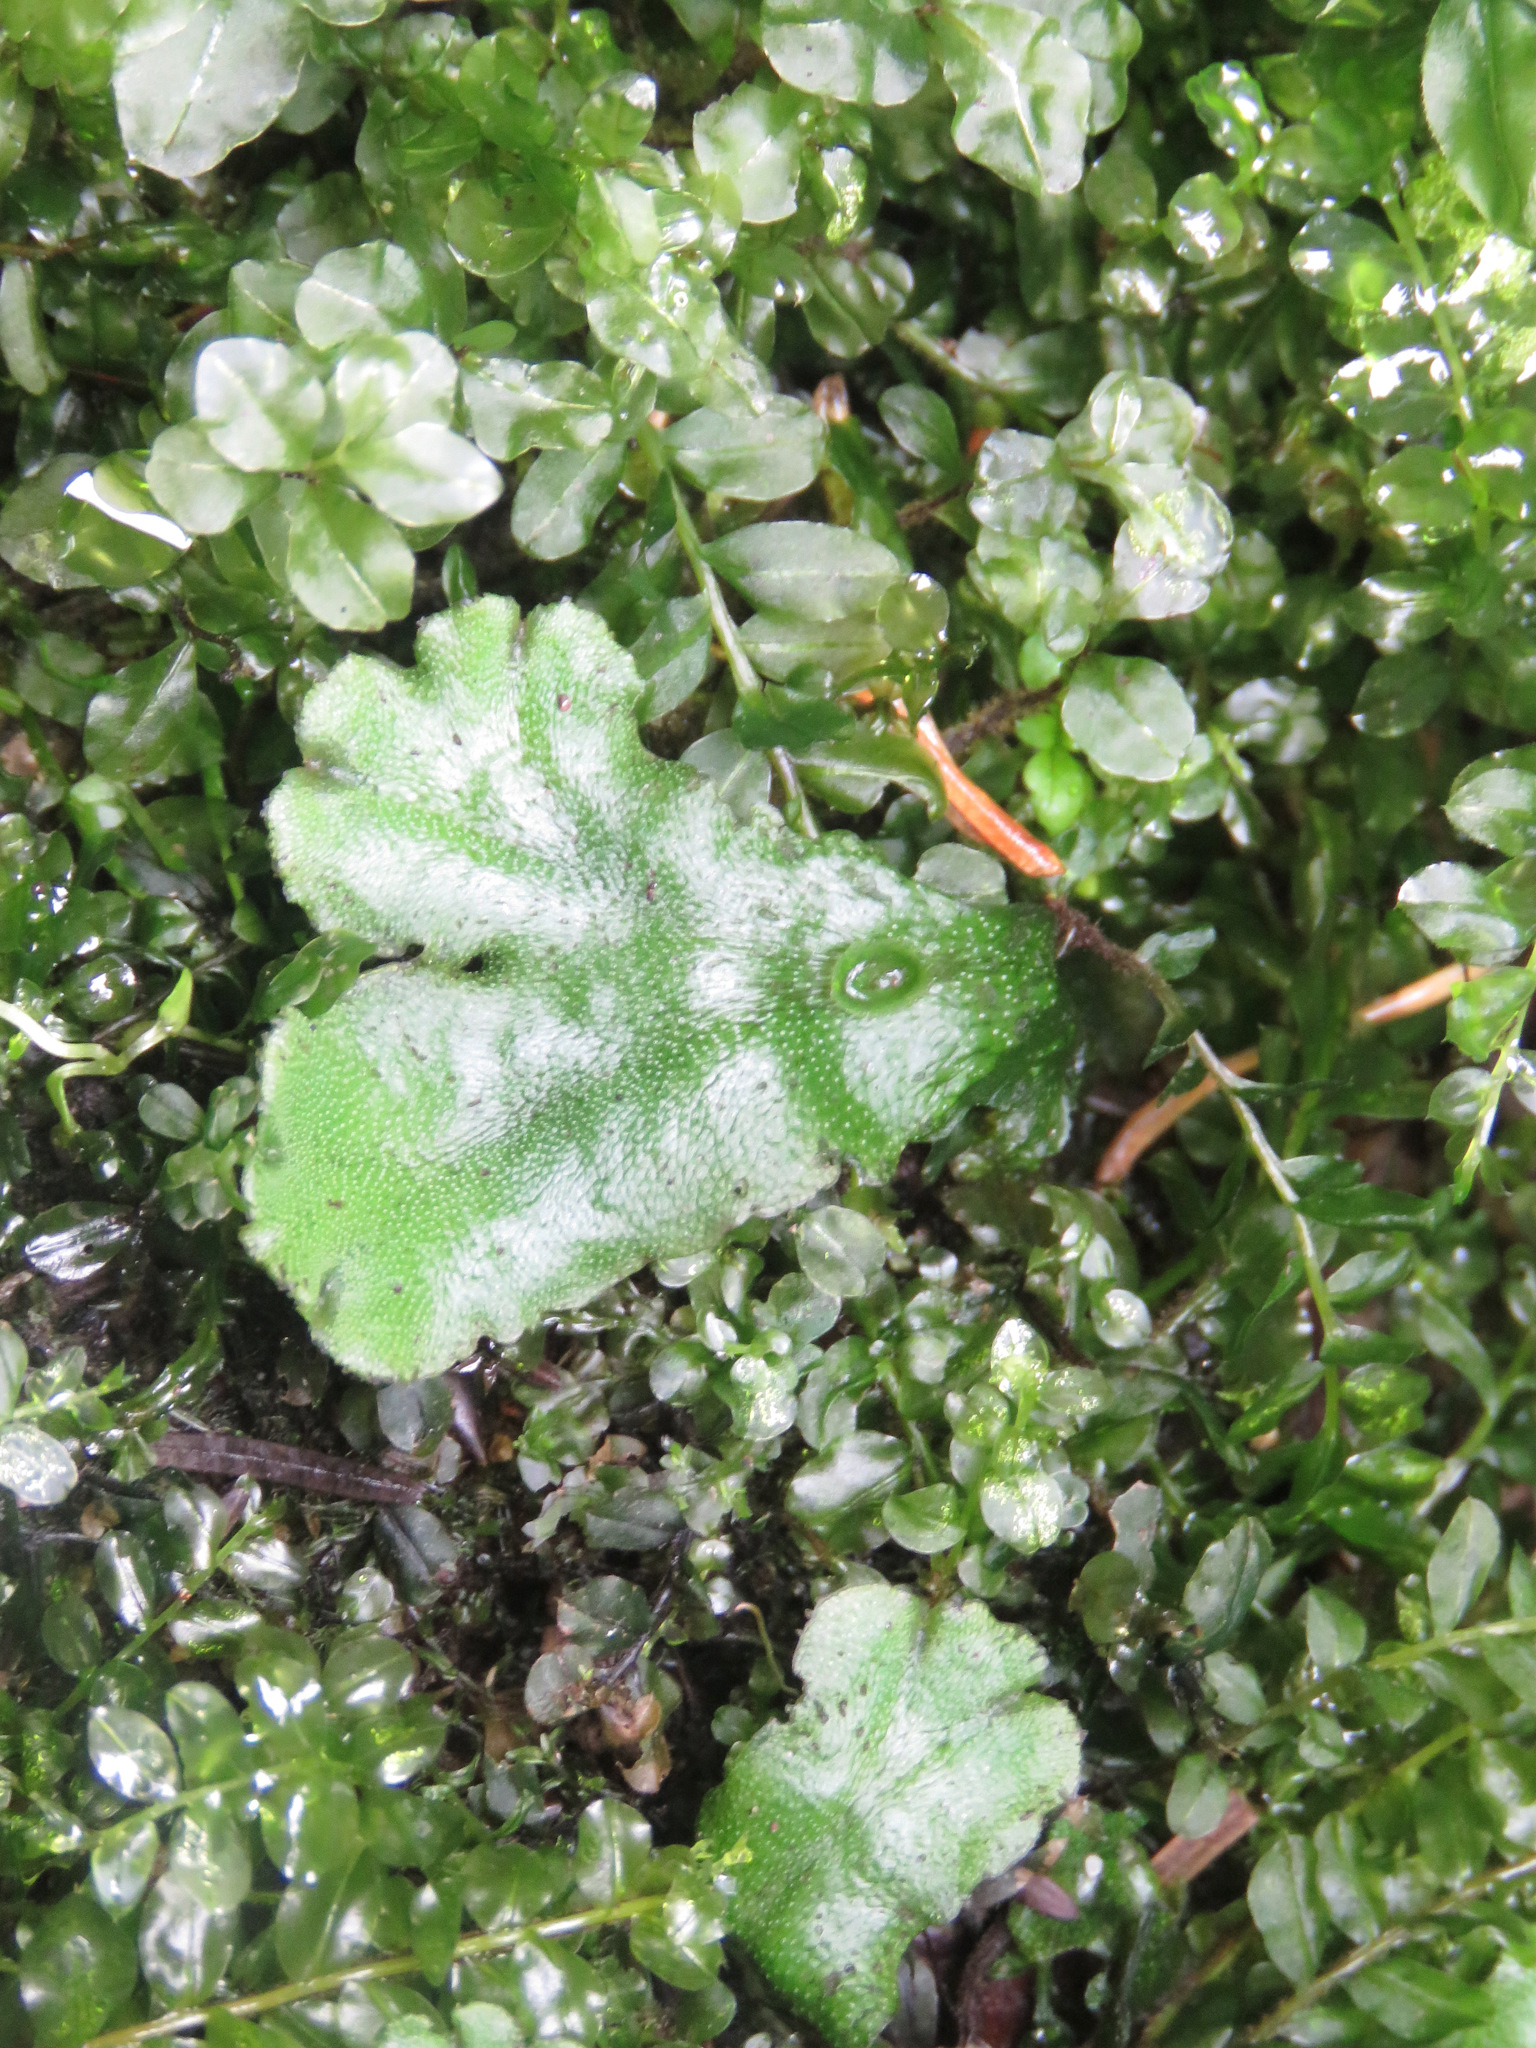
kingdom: Plantae
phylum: Marchantiophyta
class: Marchantiopsida
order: Marchantiales
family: Marchantiaceae
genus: Marchantia
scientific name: Marchantia polymorpha
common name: Common liverwort
